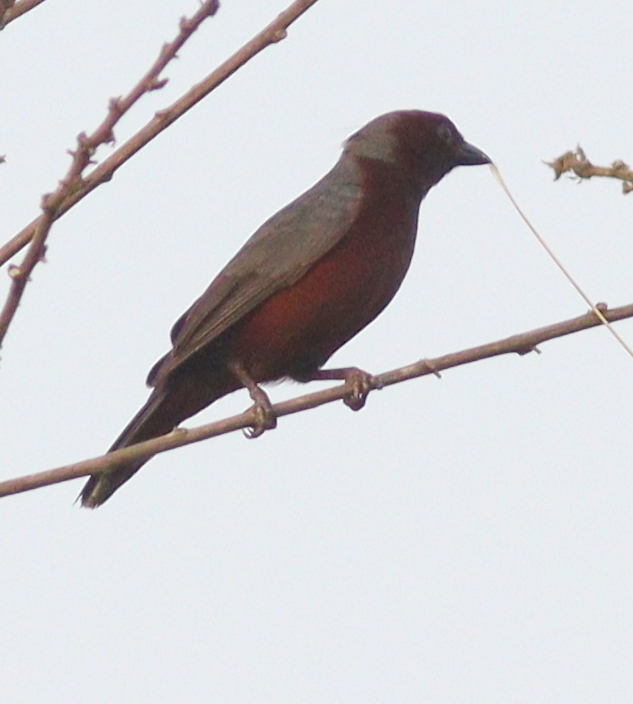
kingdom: Animalia
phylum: Chordata
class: Aves
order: Passeriformes
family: Estrildidae
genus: Nigrita
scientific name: Nigrita bicolor
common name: Chestnut-breasted nigrita
